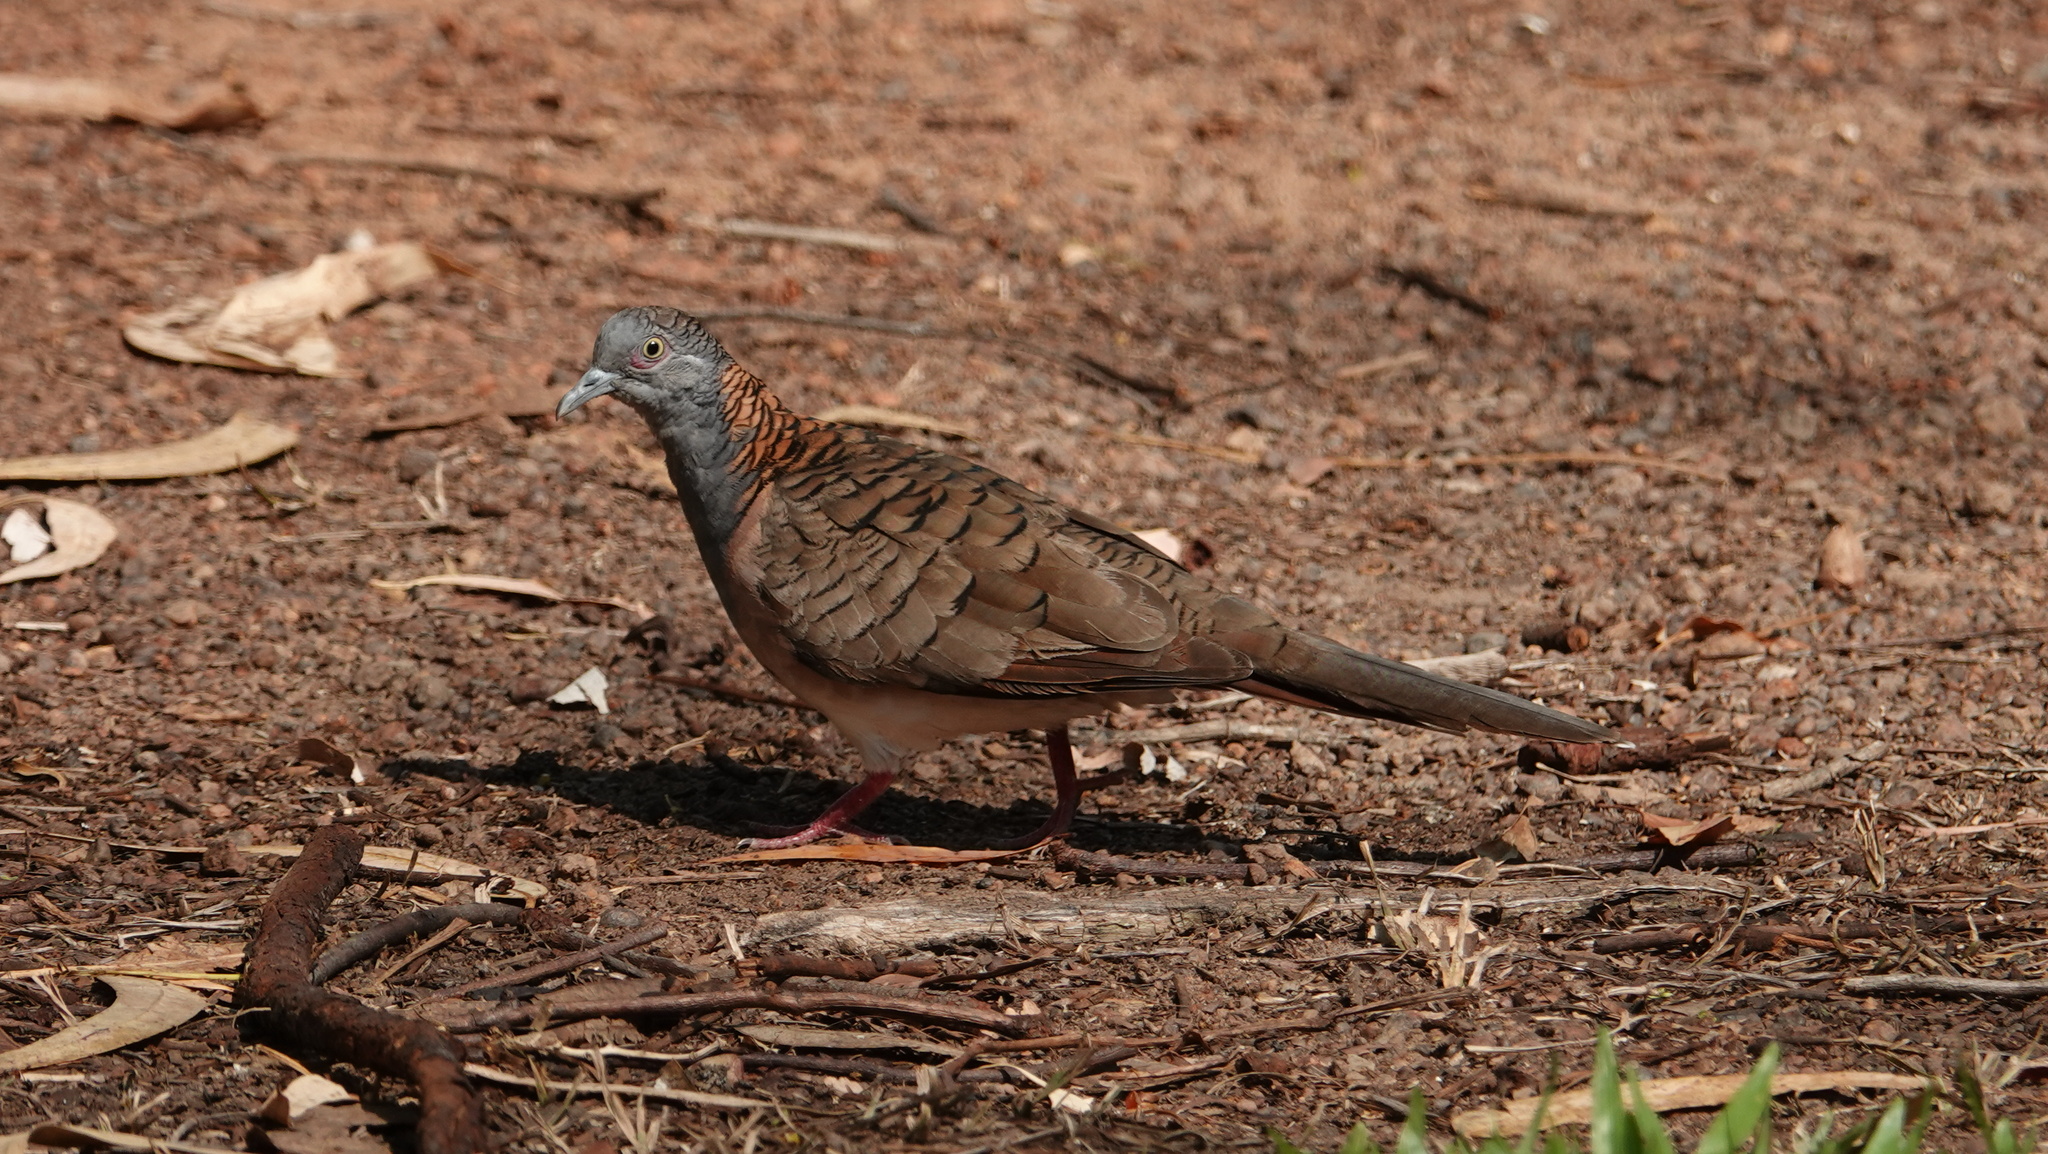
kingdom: Animalia
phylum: Chordata
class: Aves
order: Columbiformes
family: Columbidae
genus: Geopelia
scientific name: Geopelia humeralis
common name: Bar-shouldered dove
